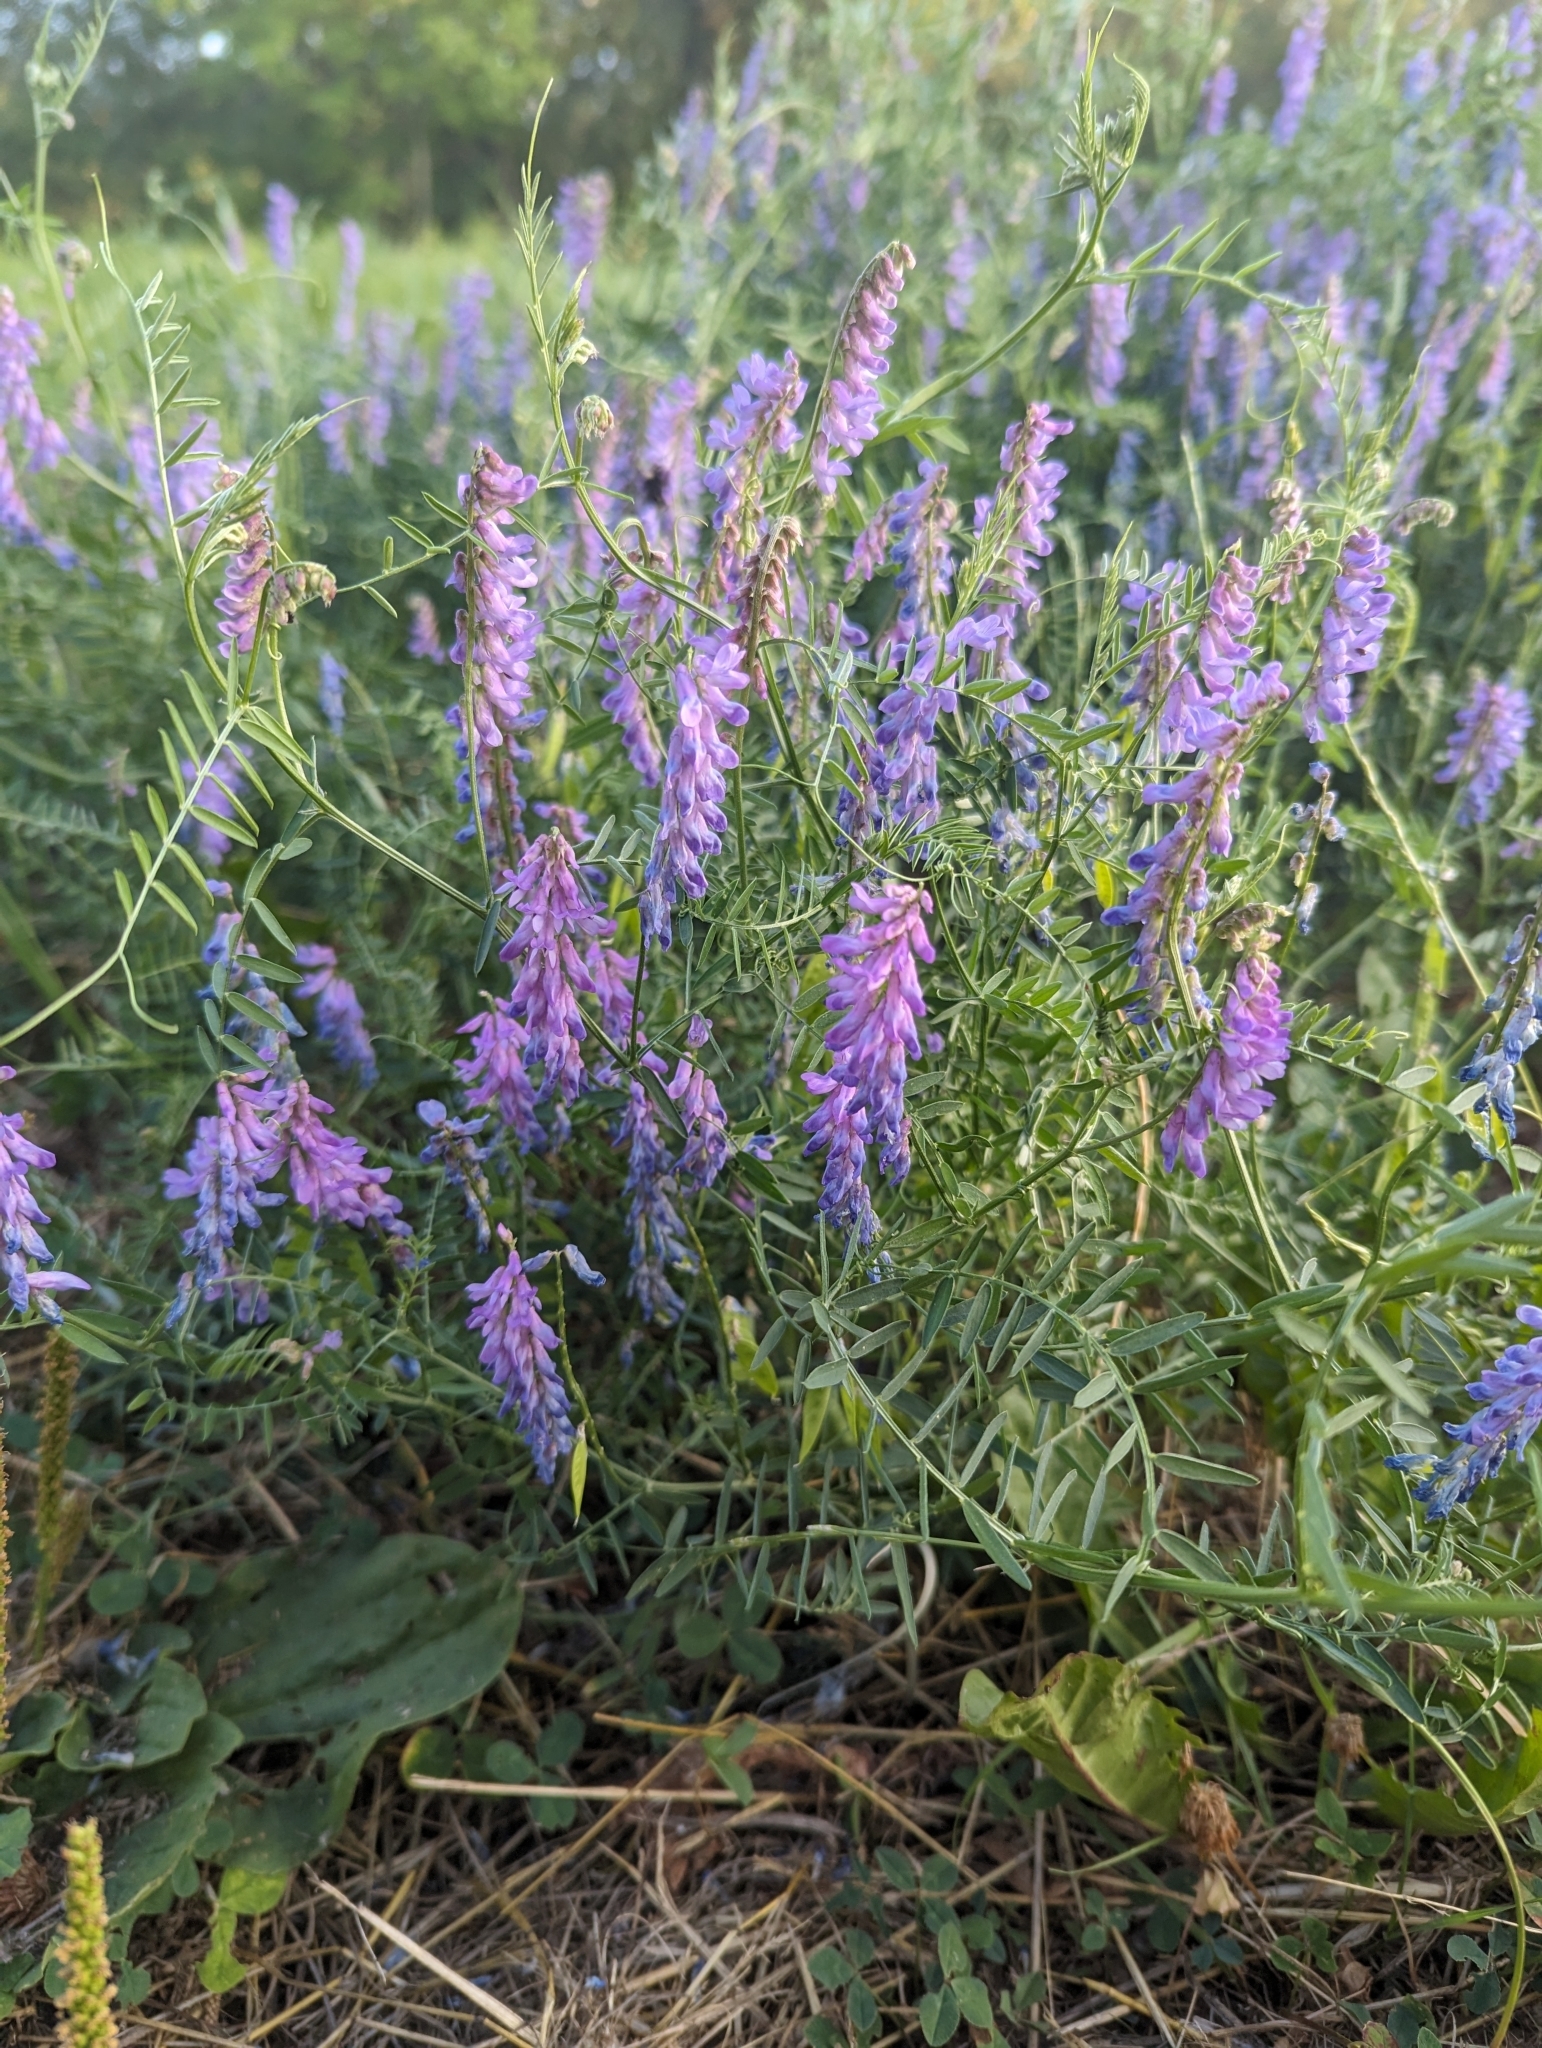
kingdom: Plantae
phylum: Tracheophyta
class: Magnoliopsida
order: Fabales
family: Fabaceae
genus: Vicia
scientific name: Vicia cracca
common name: Bird vetch
